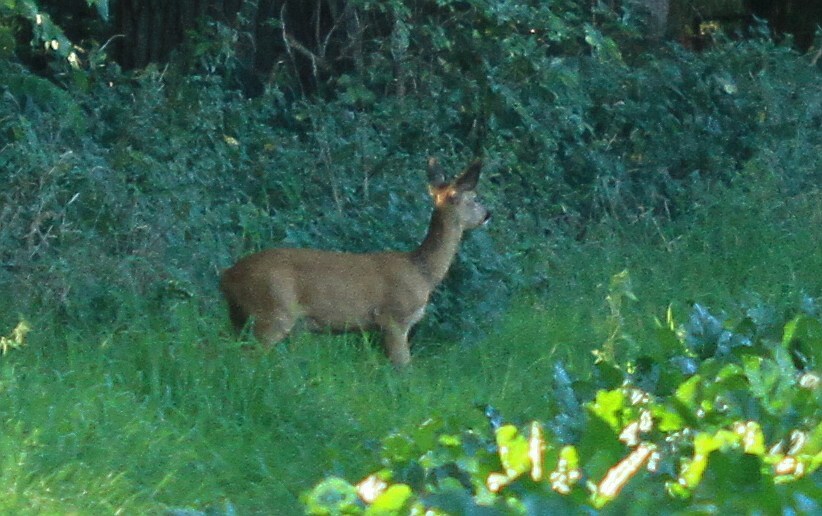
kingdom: Animalia
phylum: Chordata
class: Mammalia
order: Artiodactyla
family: Cervidae
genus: Capreolus
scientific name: Capreolus capreolus
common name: Western roe deer
